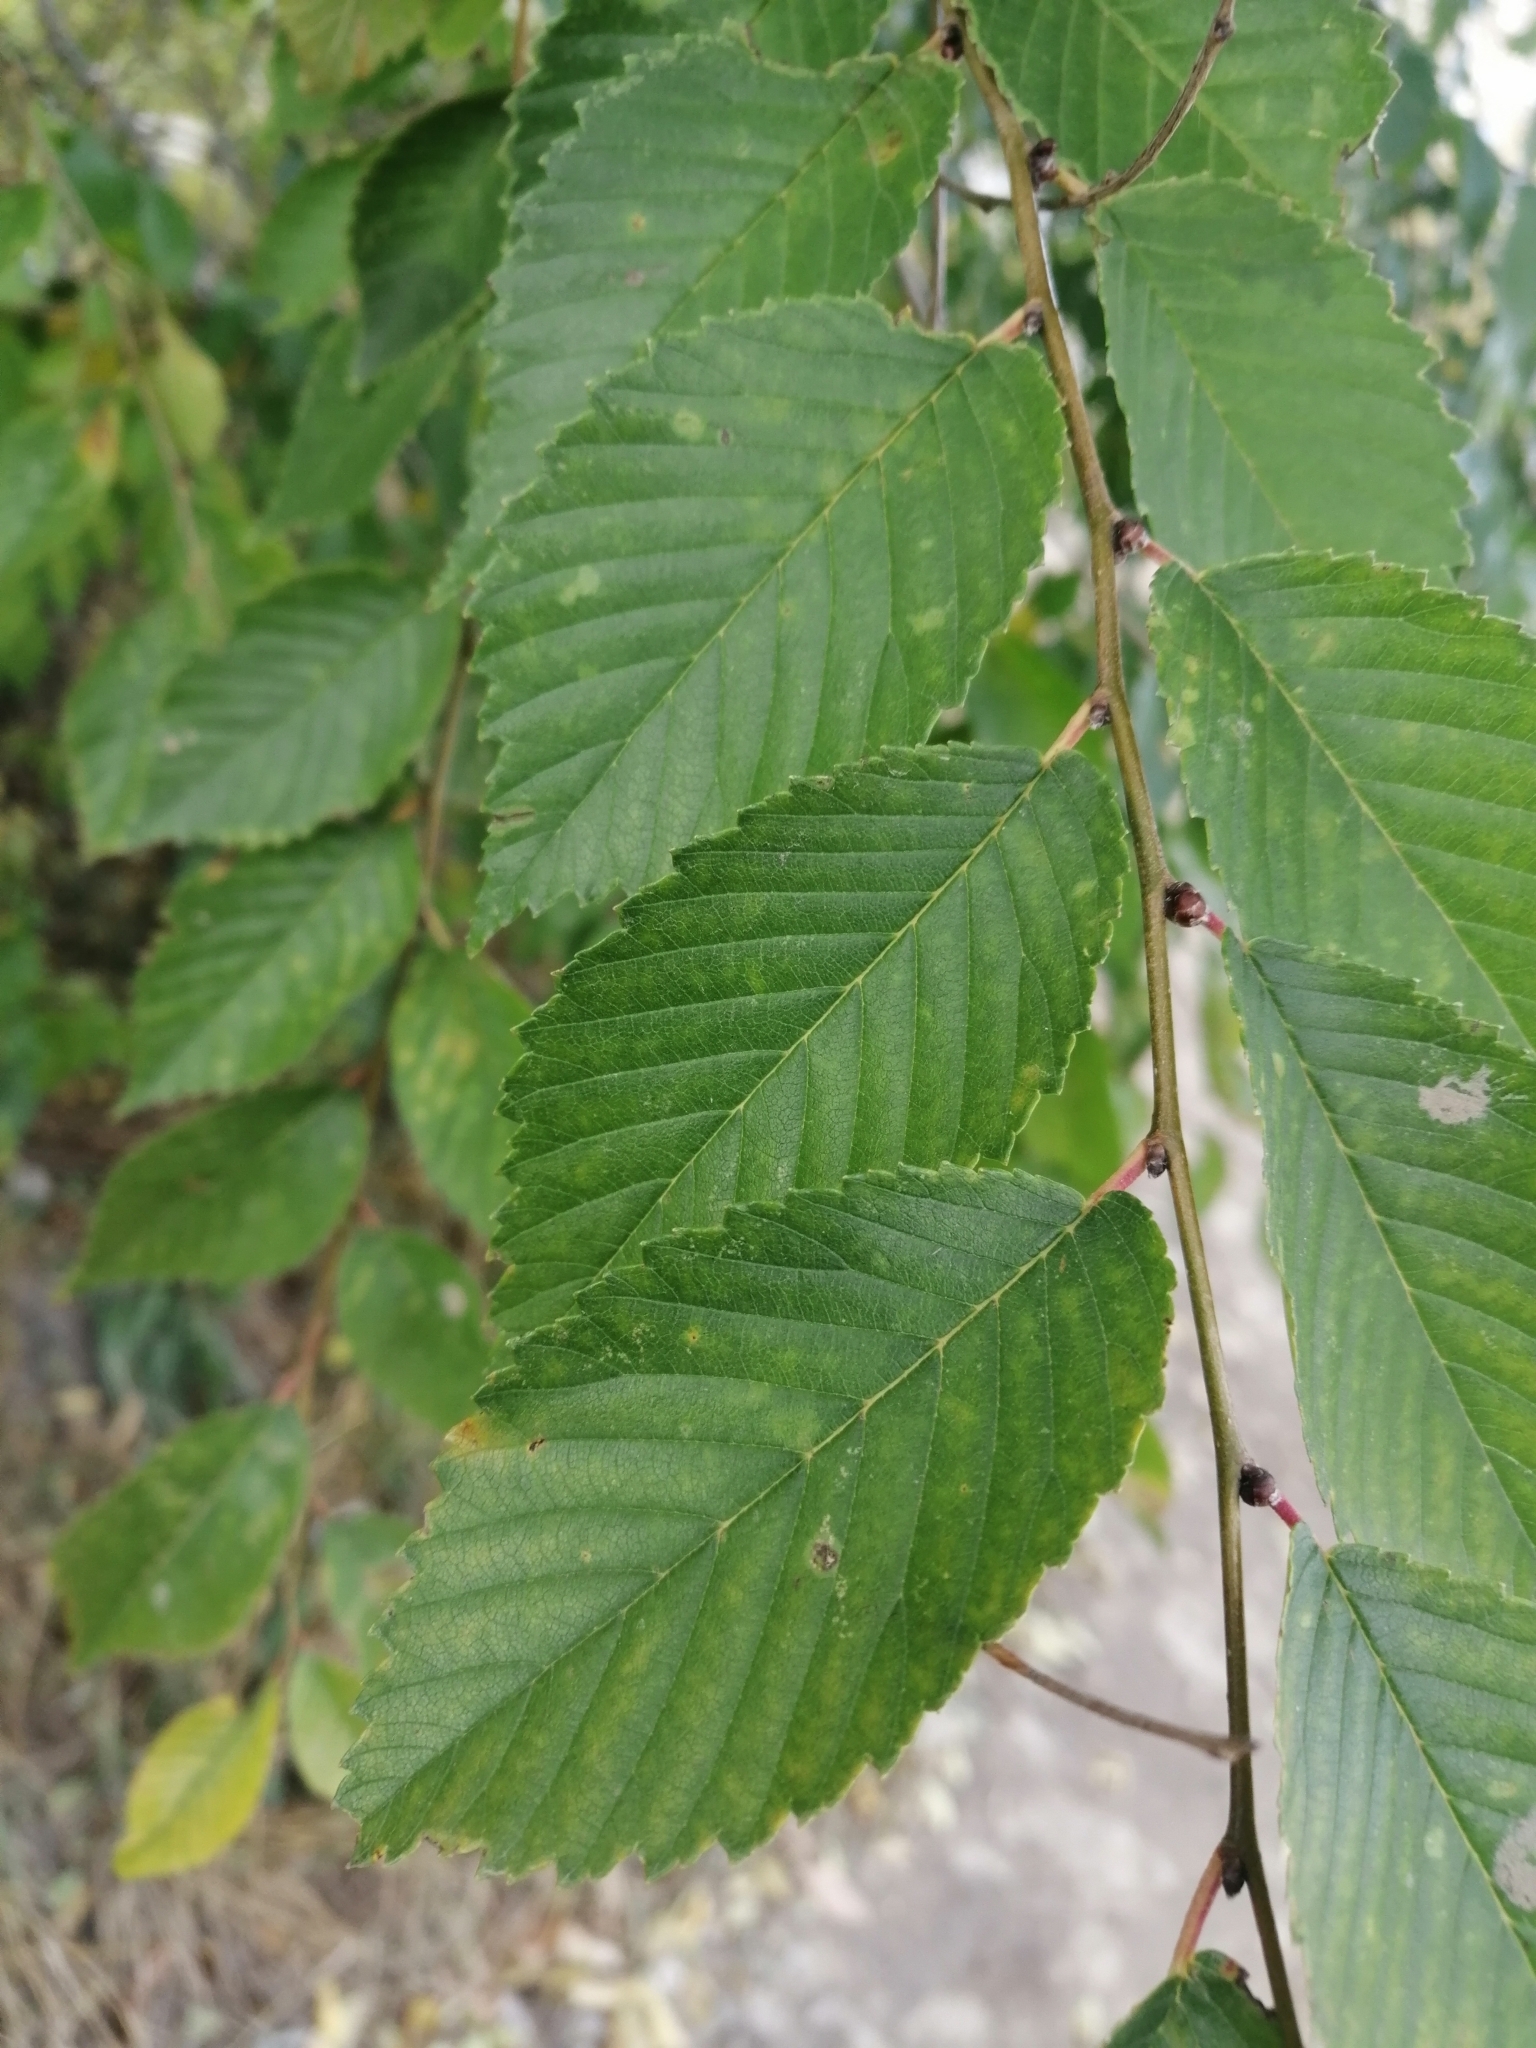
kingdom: Plantae
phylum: Tracheophyta
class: Magnoliopsida
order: Rosales
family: Ulmaceae
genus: Ulmus
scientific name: Ulmus pumila
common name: Siberian elm
